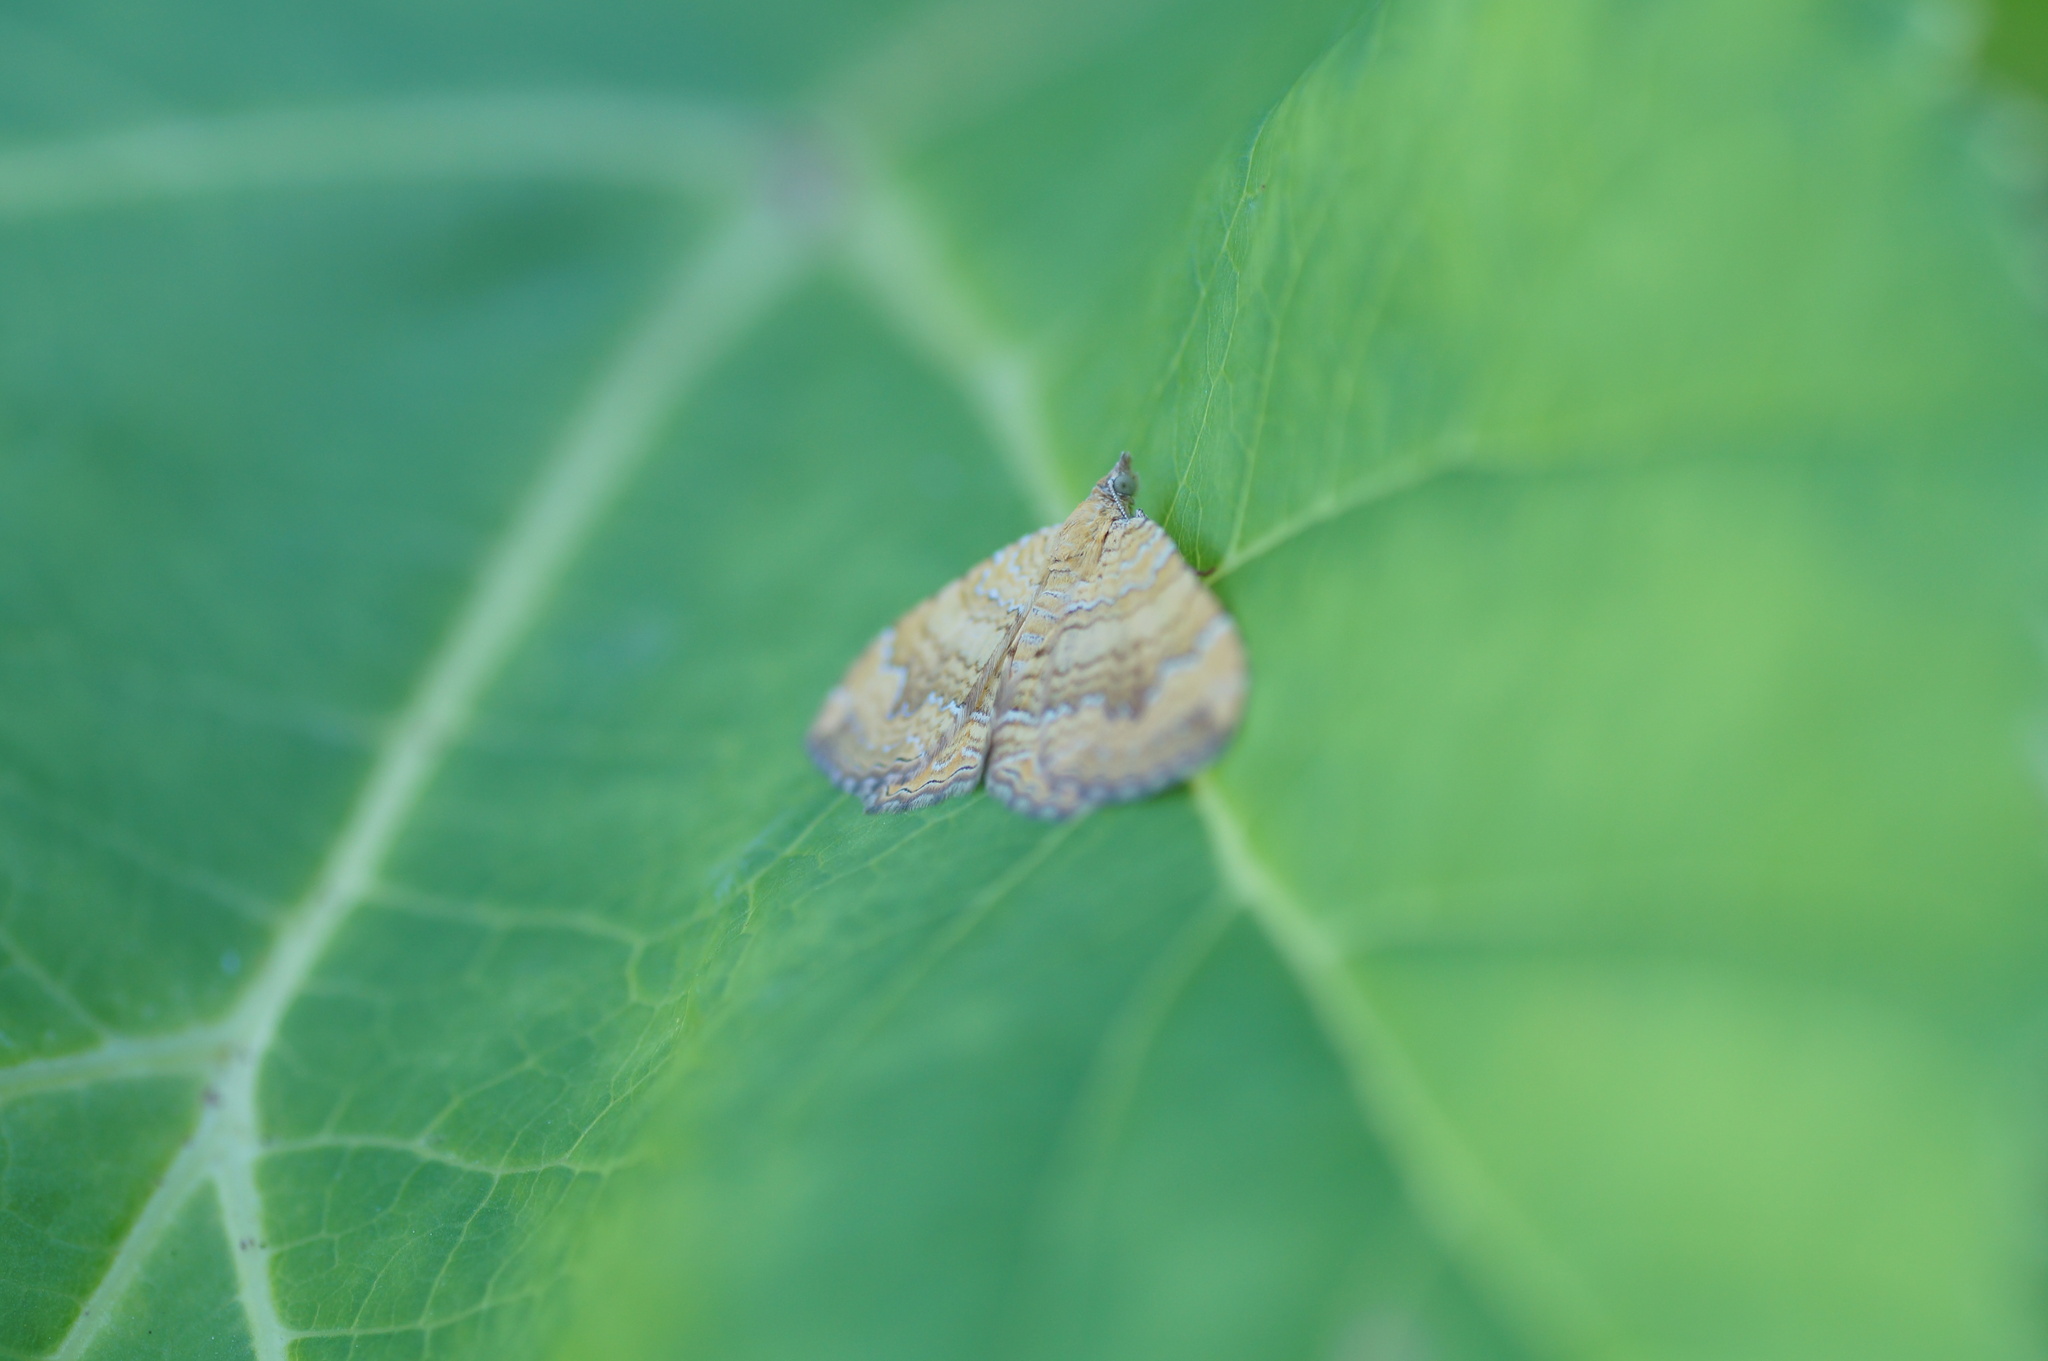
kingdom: Animalia
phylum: Arthropoda
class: Insecta
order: Lepidoptera
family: Geometridae
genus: Camptogramma
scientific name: Camptogramma bilineata
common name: Yellow shell
